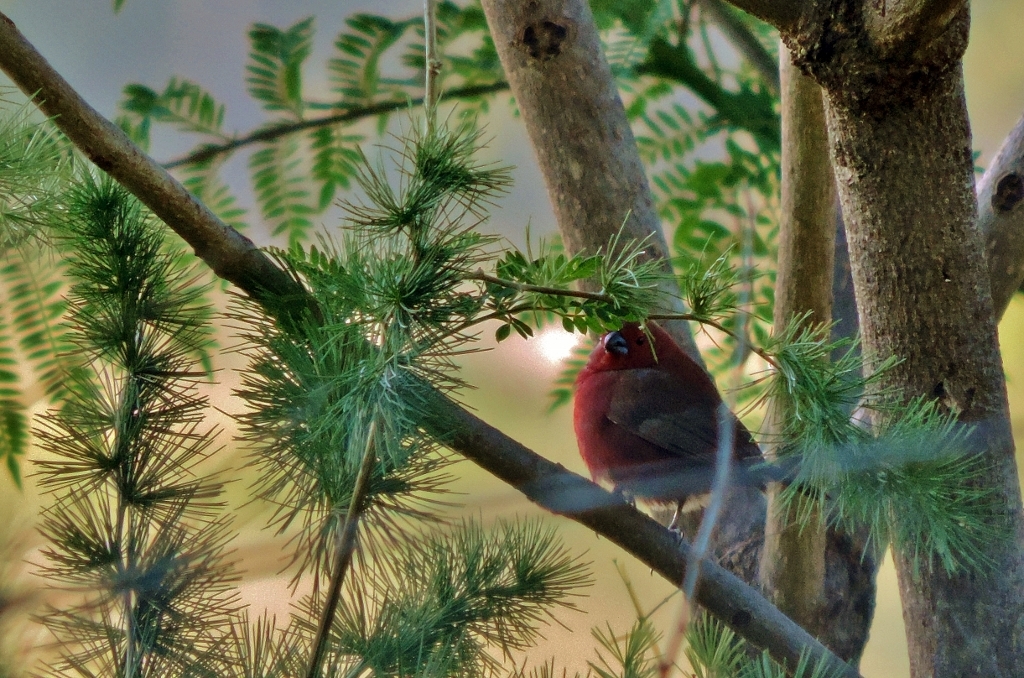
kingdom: Animalia
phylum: Chordata
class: Aves
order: Passeriformes
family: Estrildidae
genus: Lagonosticta
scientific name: Lagonosticta rhodopareia
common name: Jameson's firefinch
